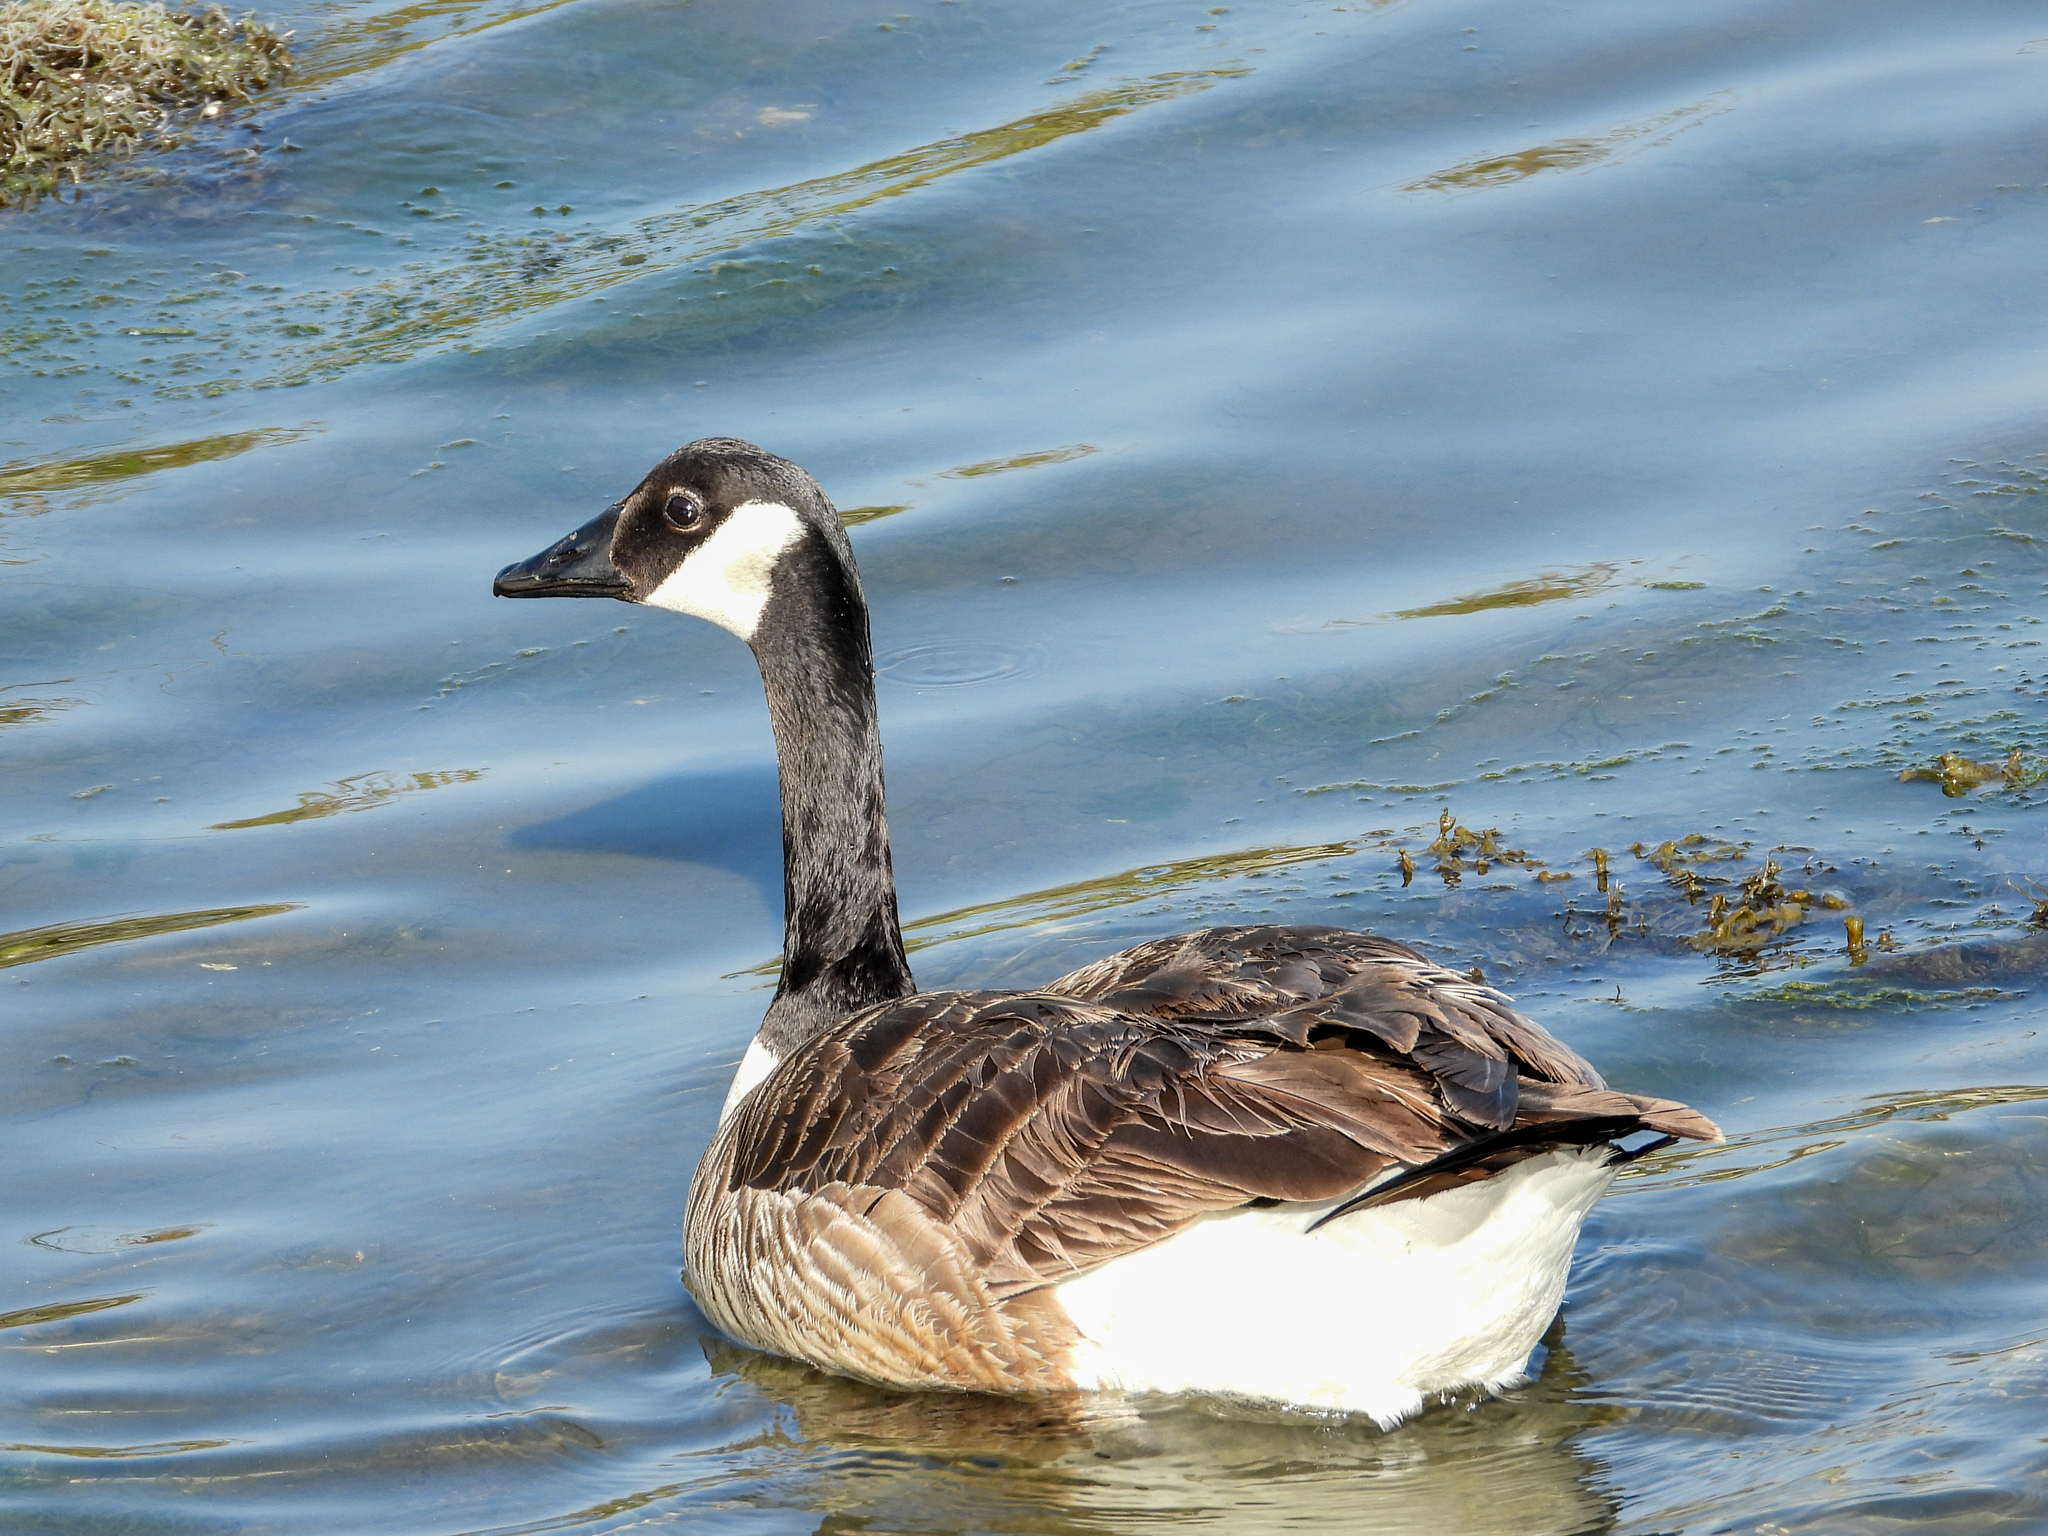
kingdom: Animalia
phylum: Chordata
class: Aves
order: Anseriformes
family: Anatidae
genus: Branta
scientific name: Branta canadensis
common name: Canada goose
